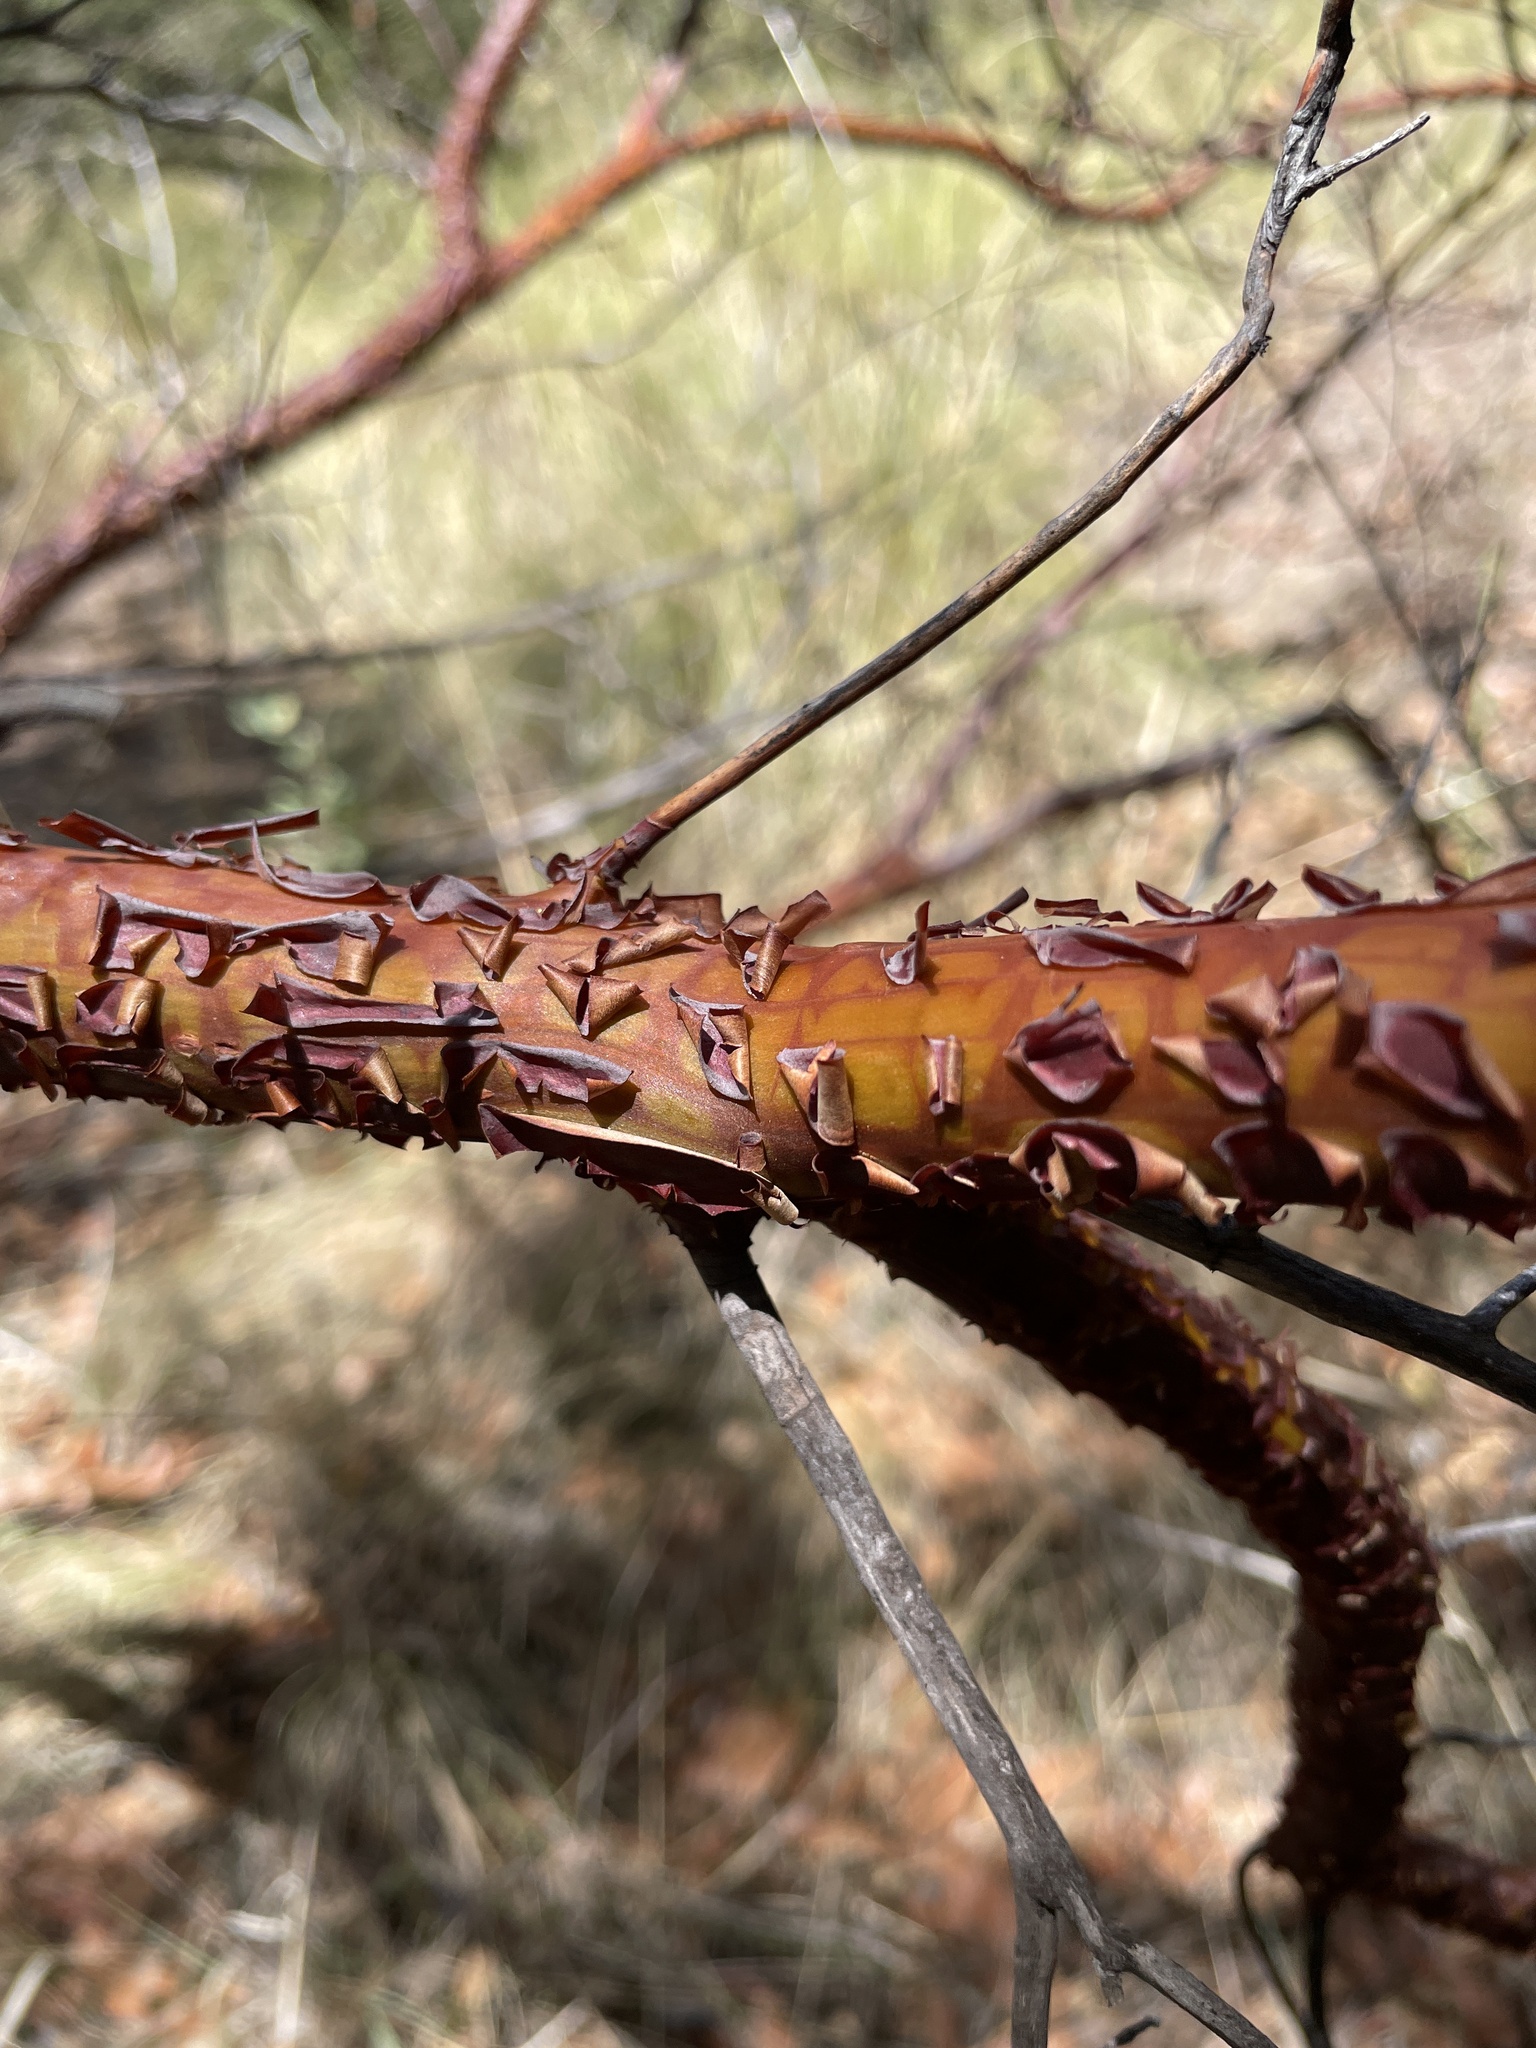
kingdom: Plantae
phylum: Tracheophyta
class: Magnoliopsida
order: Ericales
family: Ericaceae
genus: Arctostaphylos
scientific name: Arctostaphylos pungens
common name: Mexican manzanita
